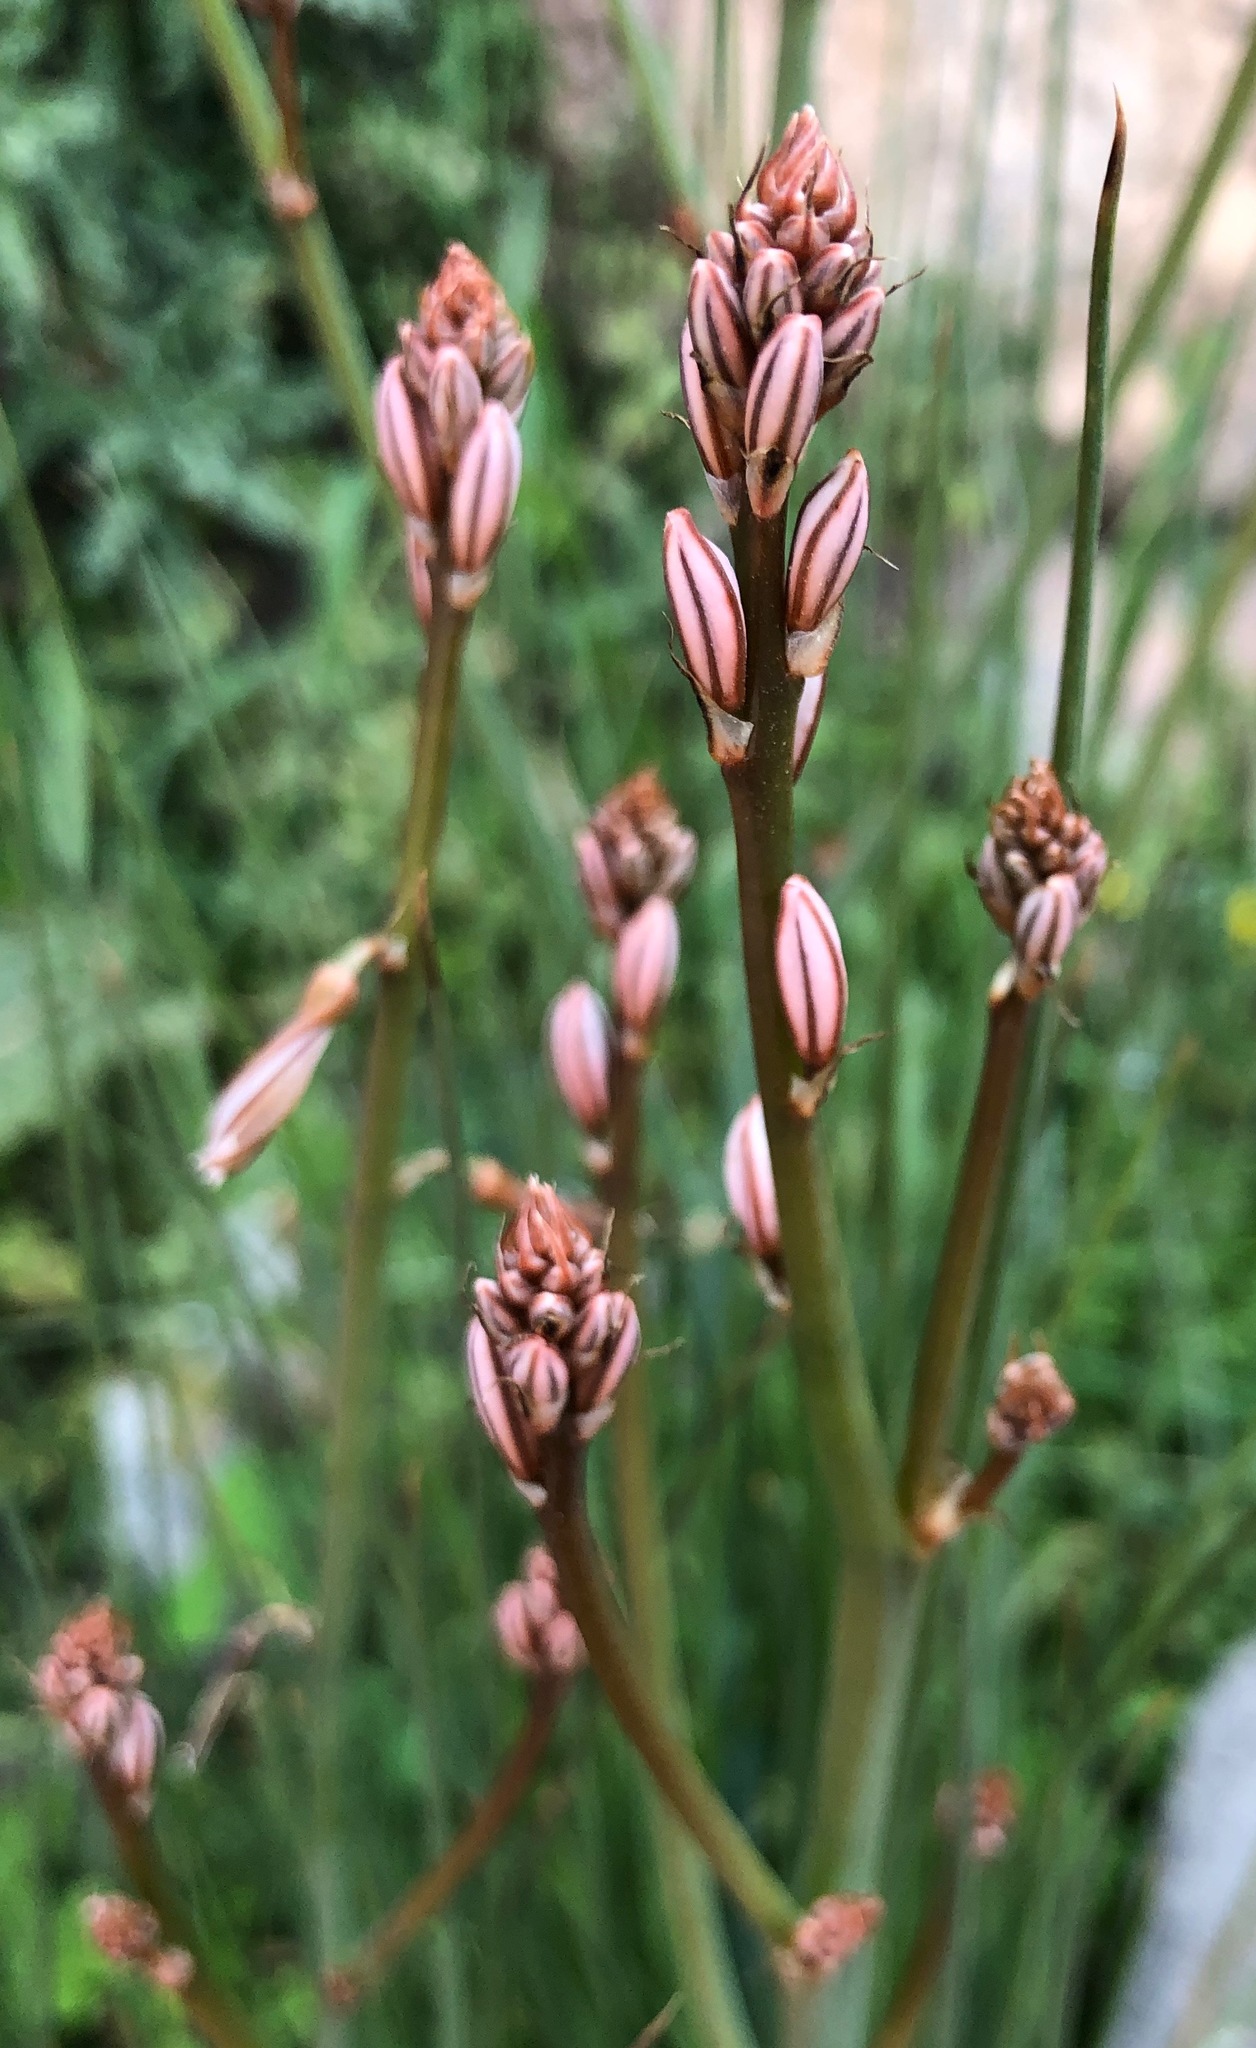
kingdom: Plantae
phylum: Tracheophyta
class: Liliopsida
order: Asparagales
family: Asphodelaceae
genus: Asphodelus
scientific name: Asphodelus fistulosus
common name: Onionweed
